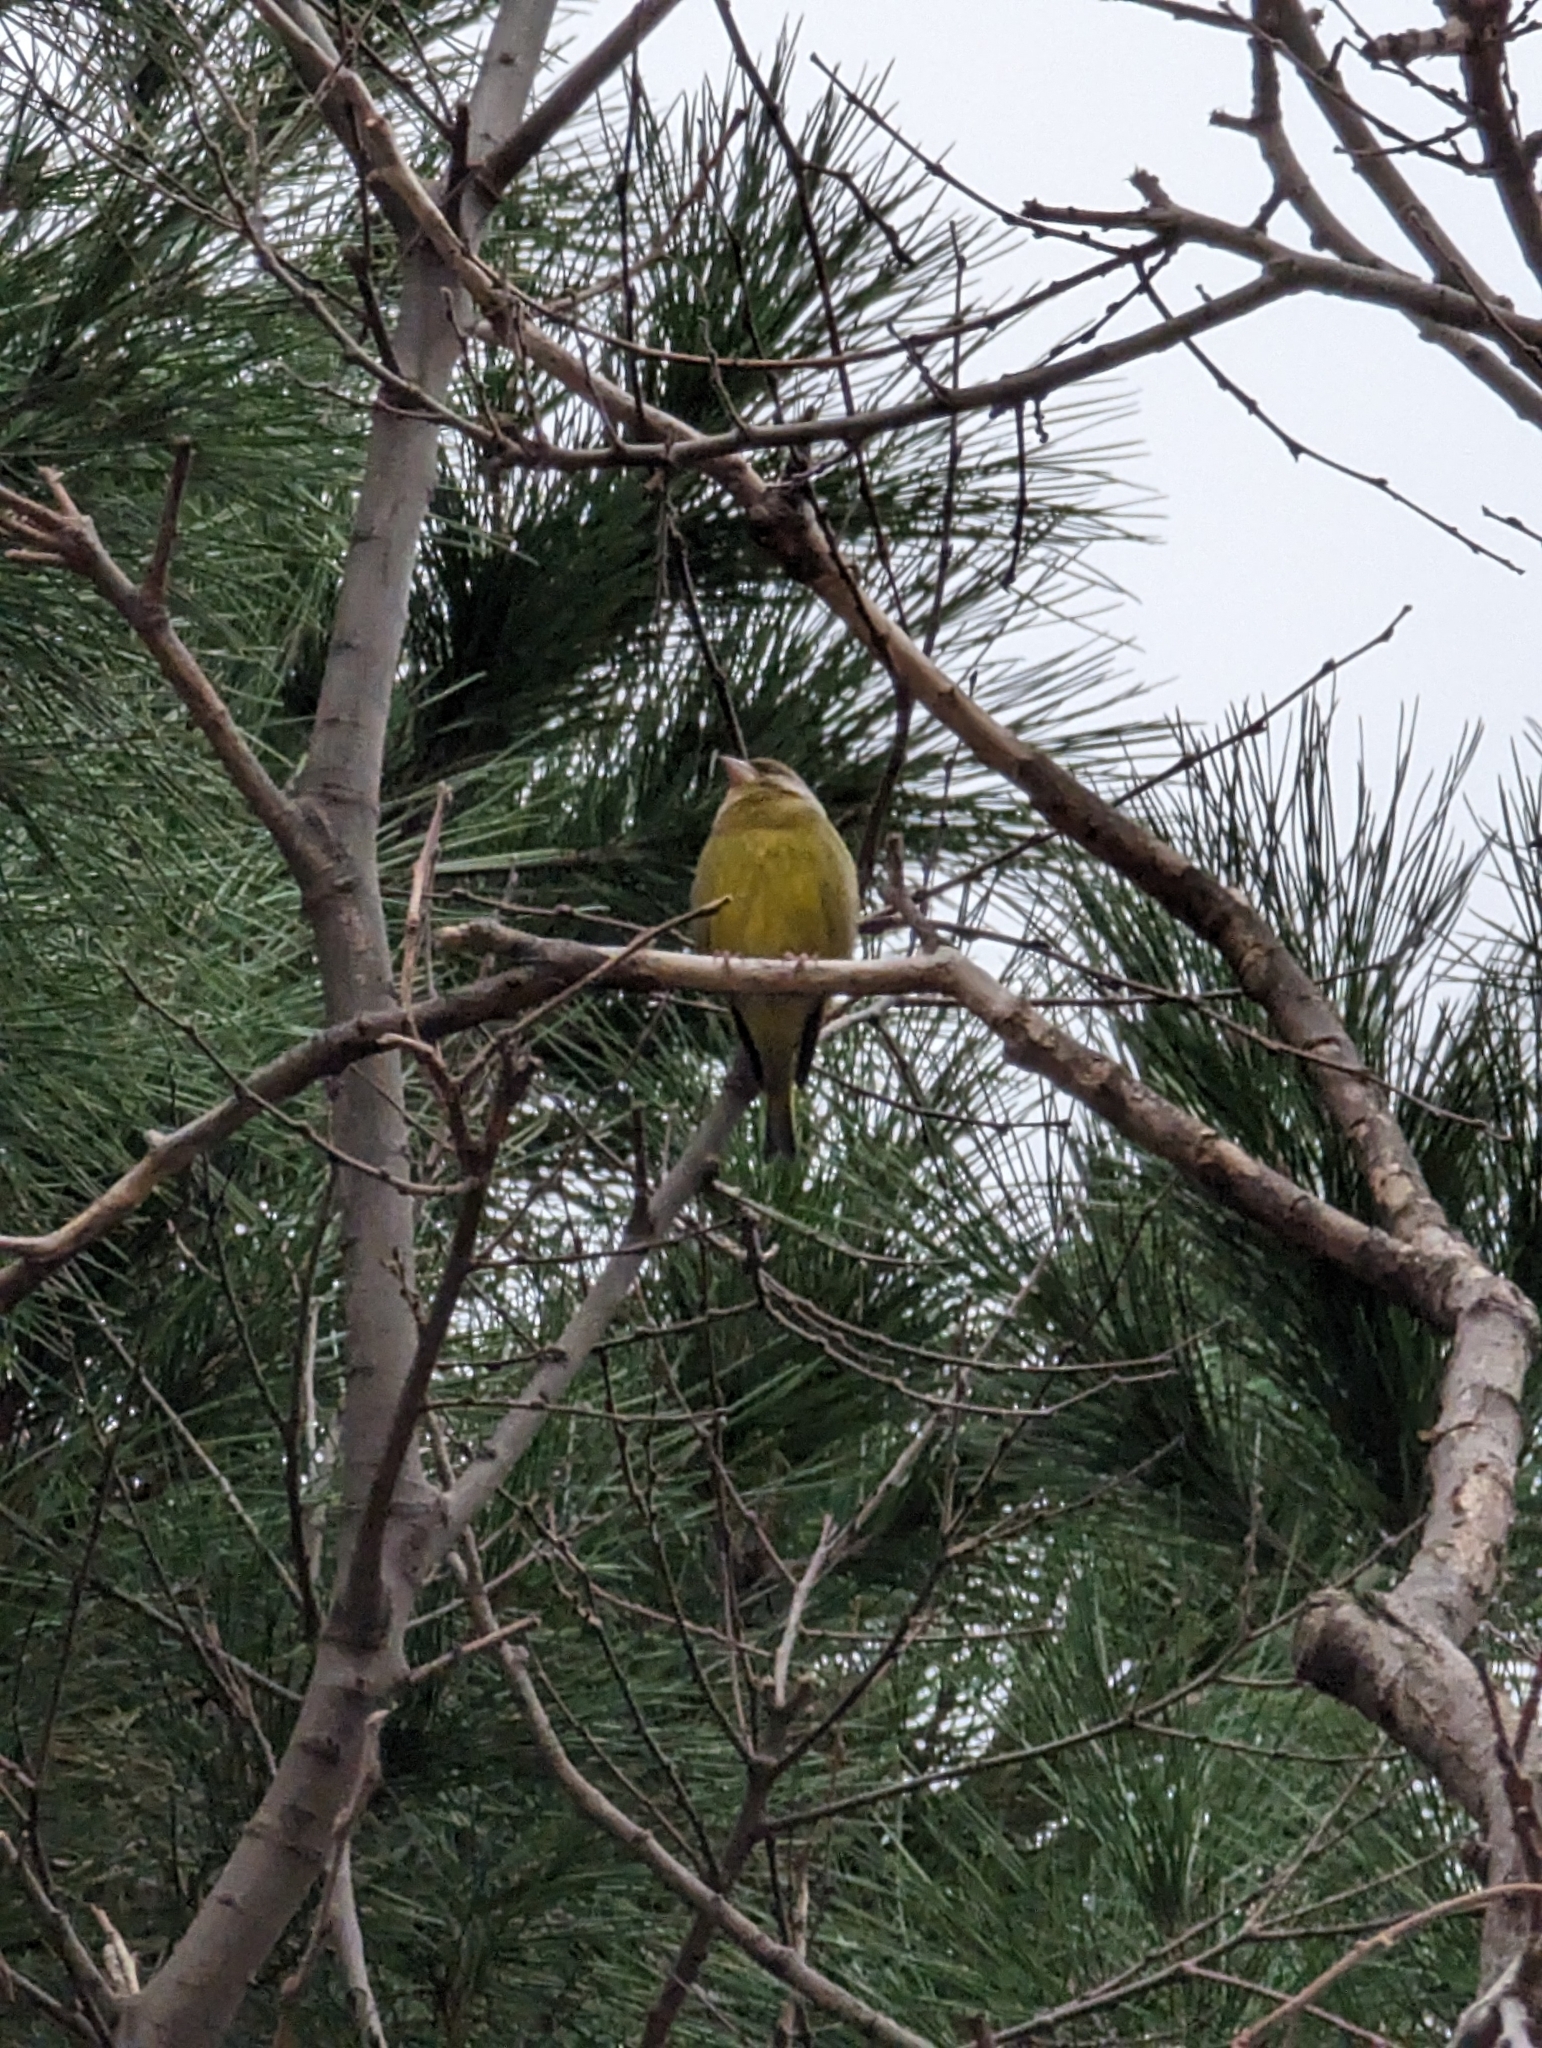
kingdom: Plantae
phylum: Tracheophyta
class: Liliopsida
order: Poales
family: Poaceae
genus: Chloris
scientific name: Chloris chloris
